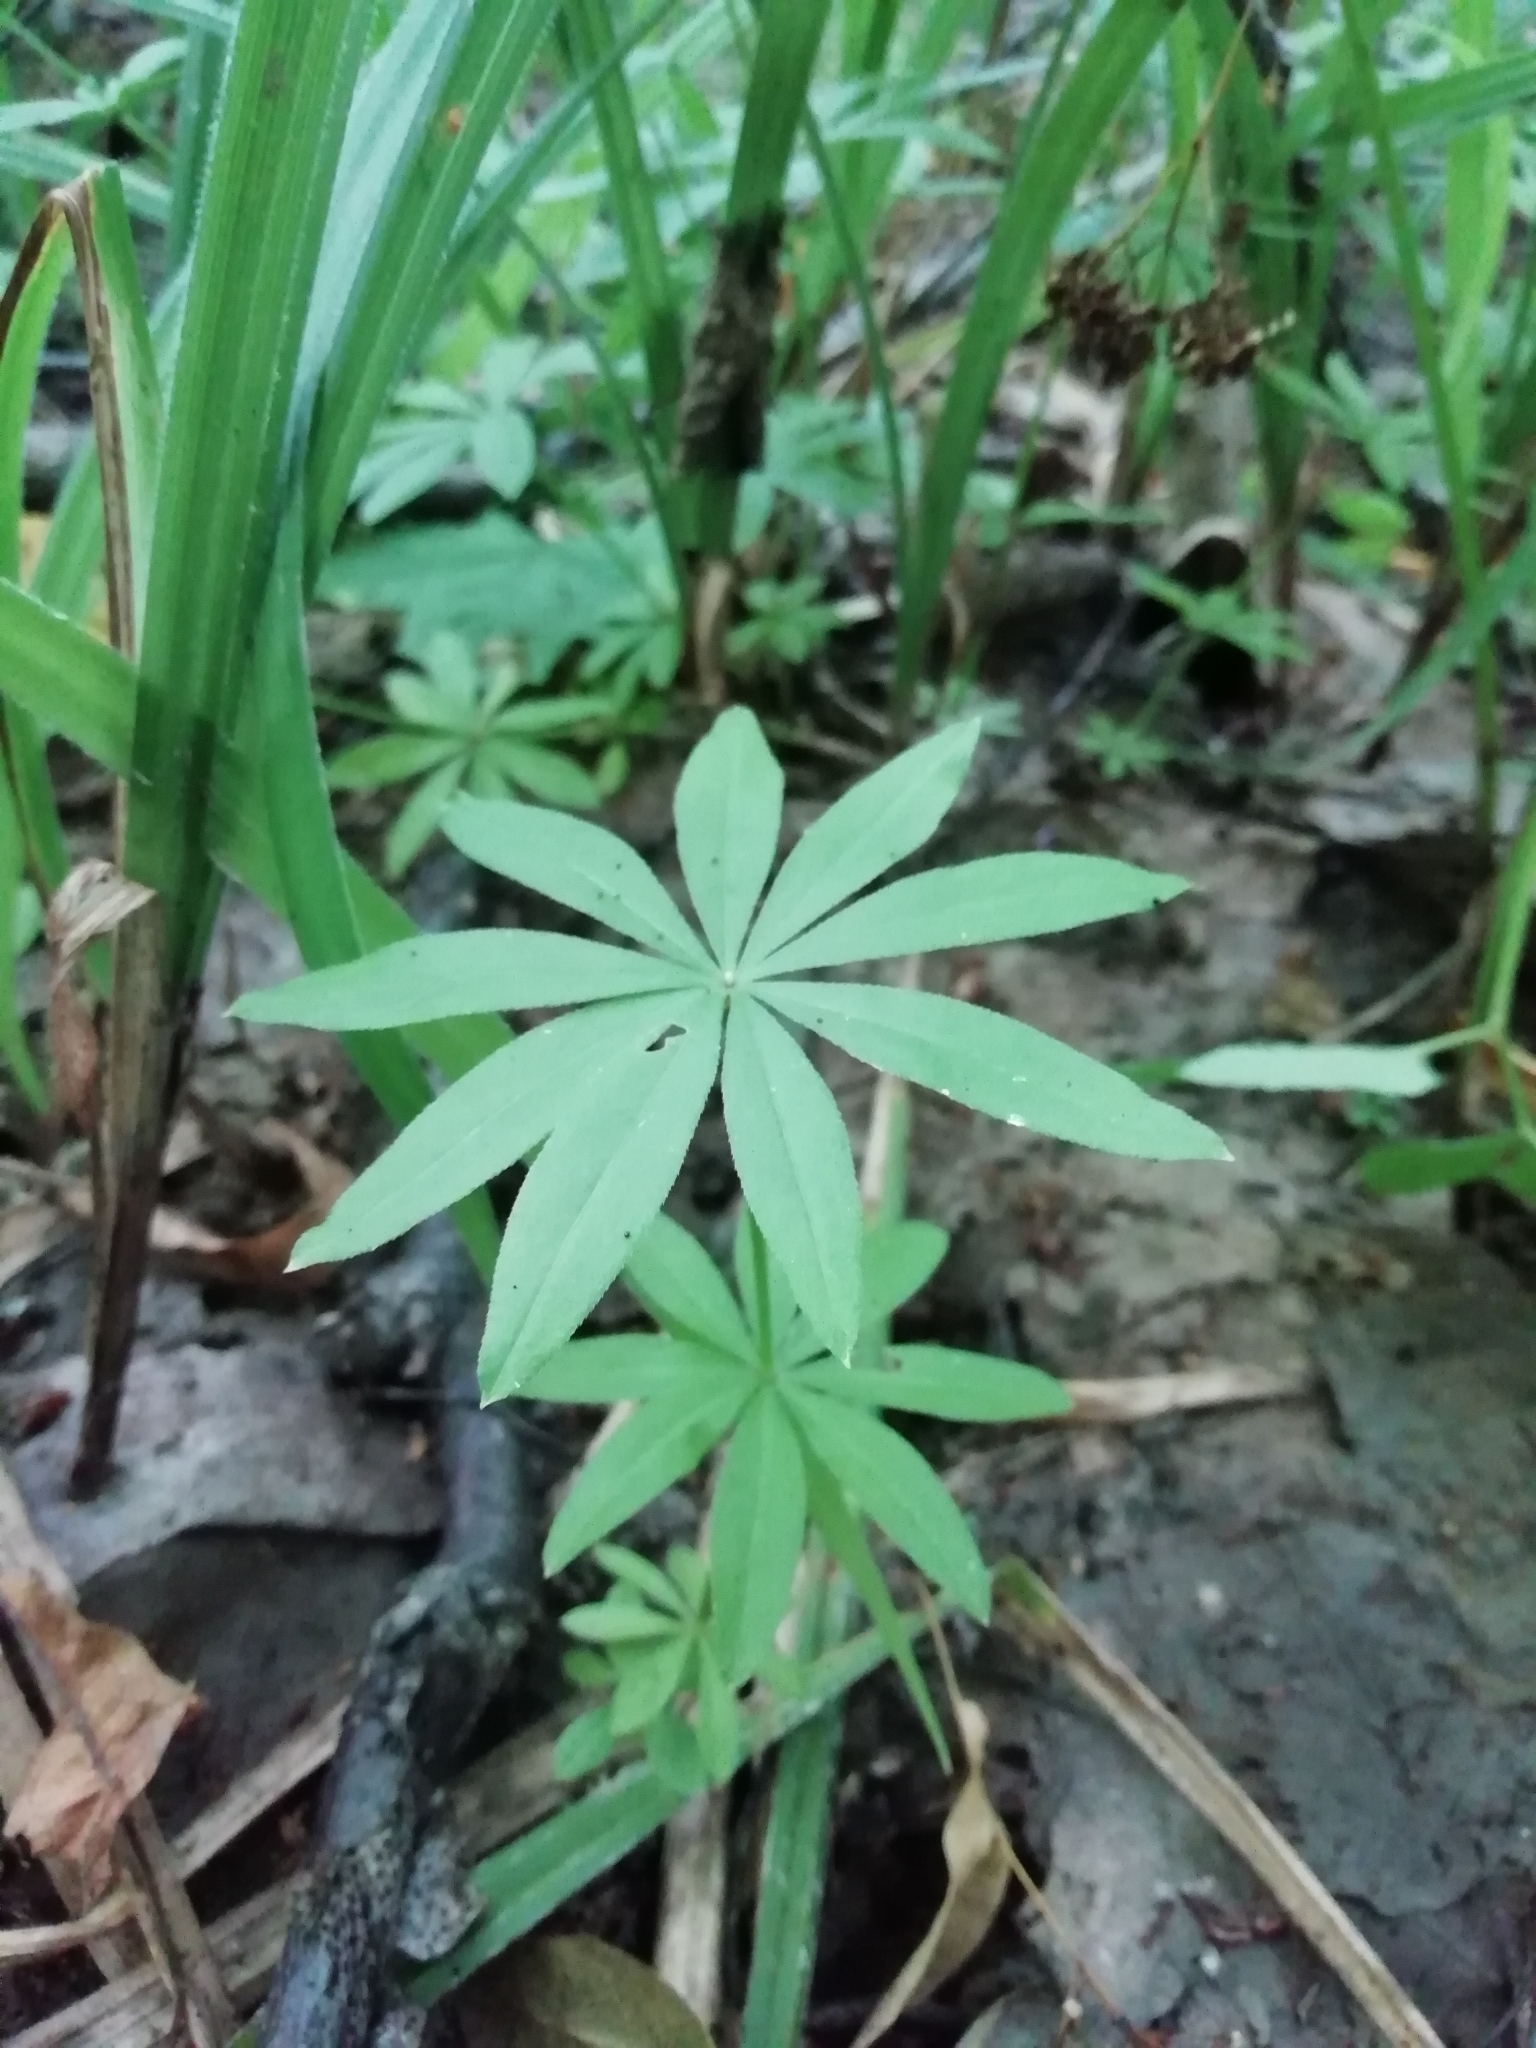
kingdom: Plantae
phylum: Tracheophyta
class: Magnoliopsida
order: Gentianales
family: Rubiaceae
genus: Galium
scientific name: Galium odoratum
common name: Sweet woodruff
